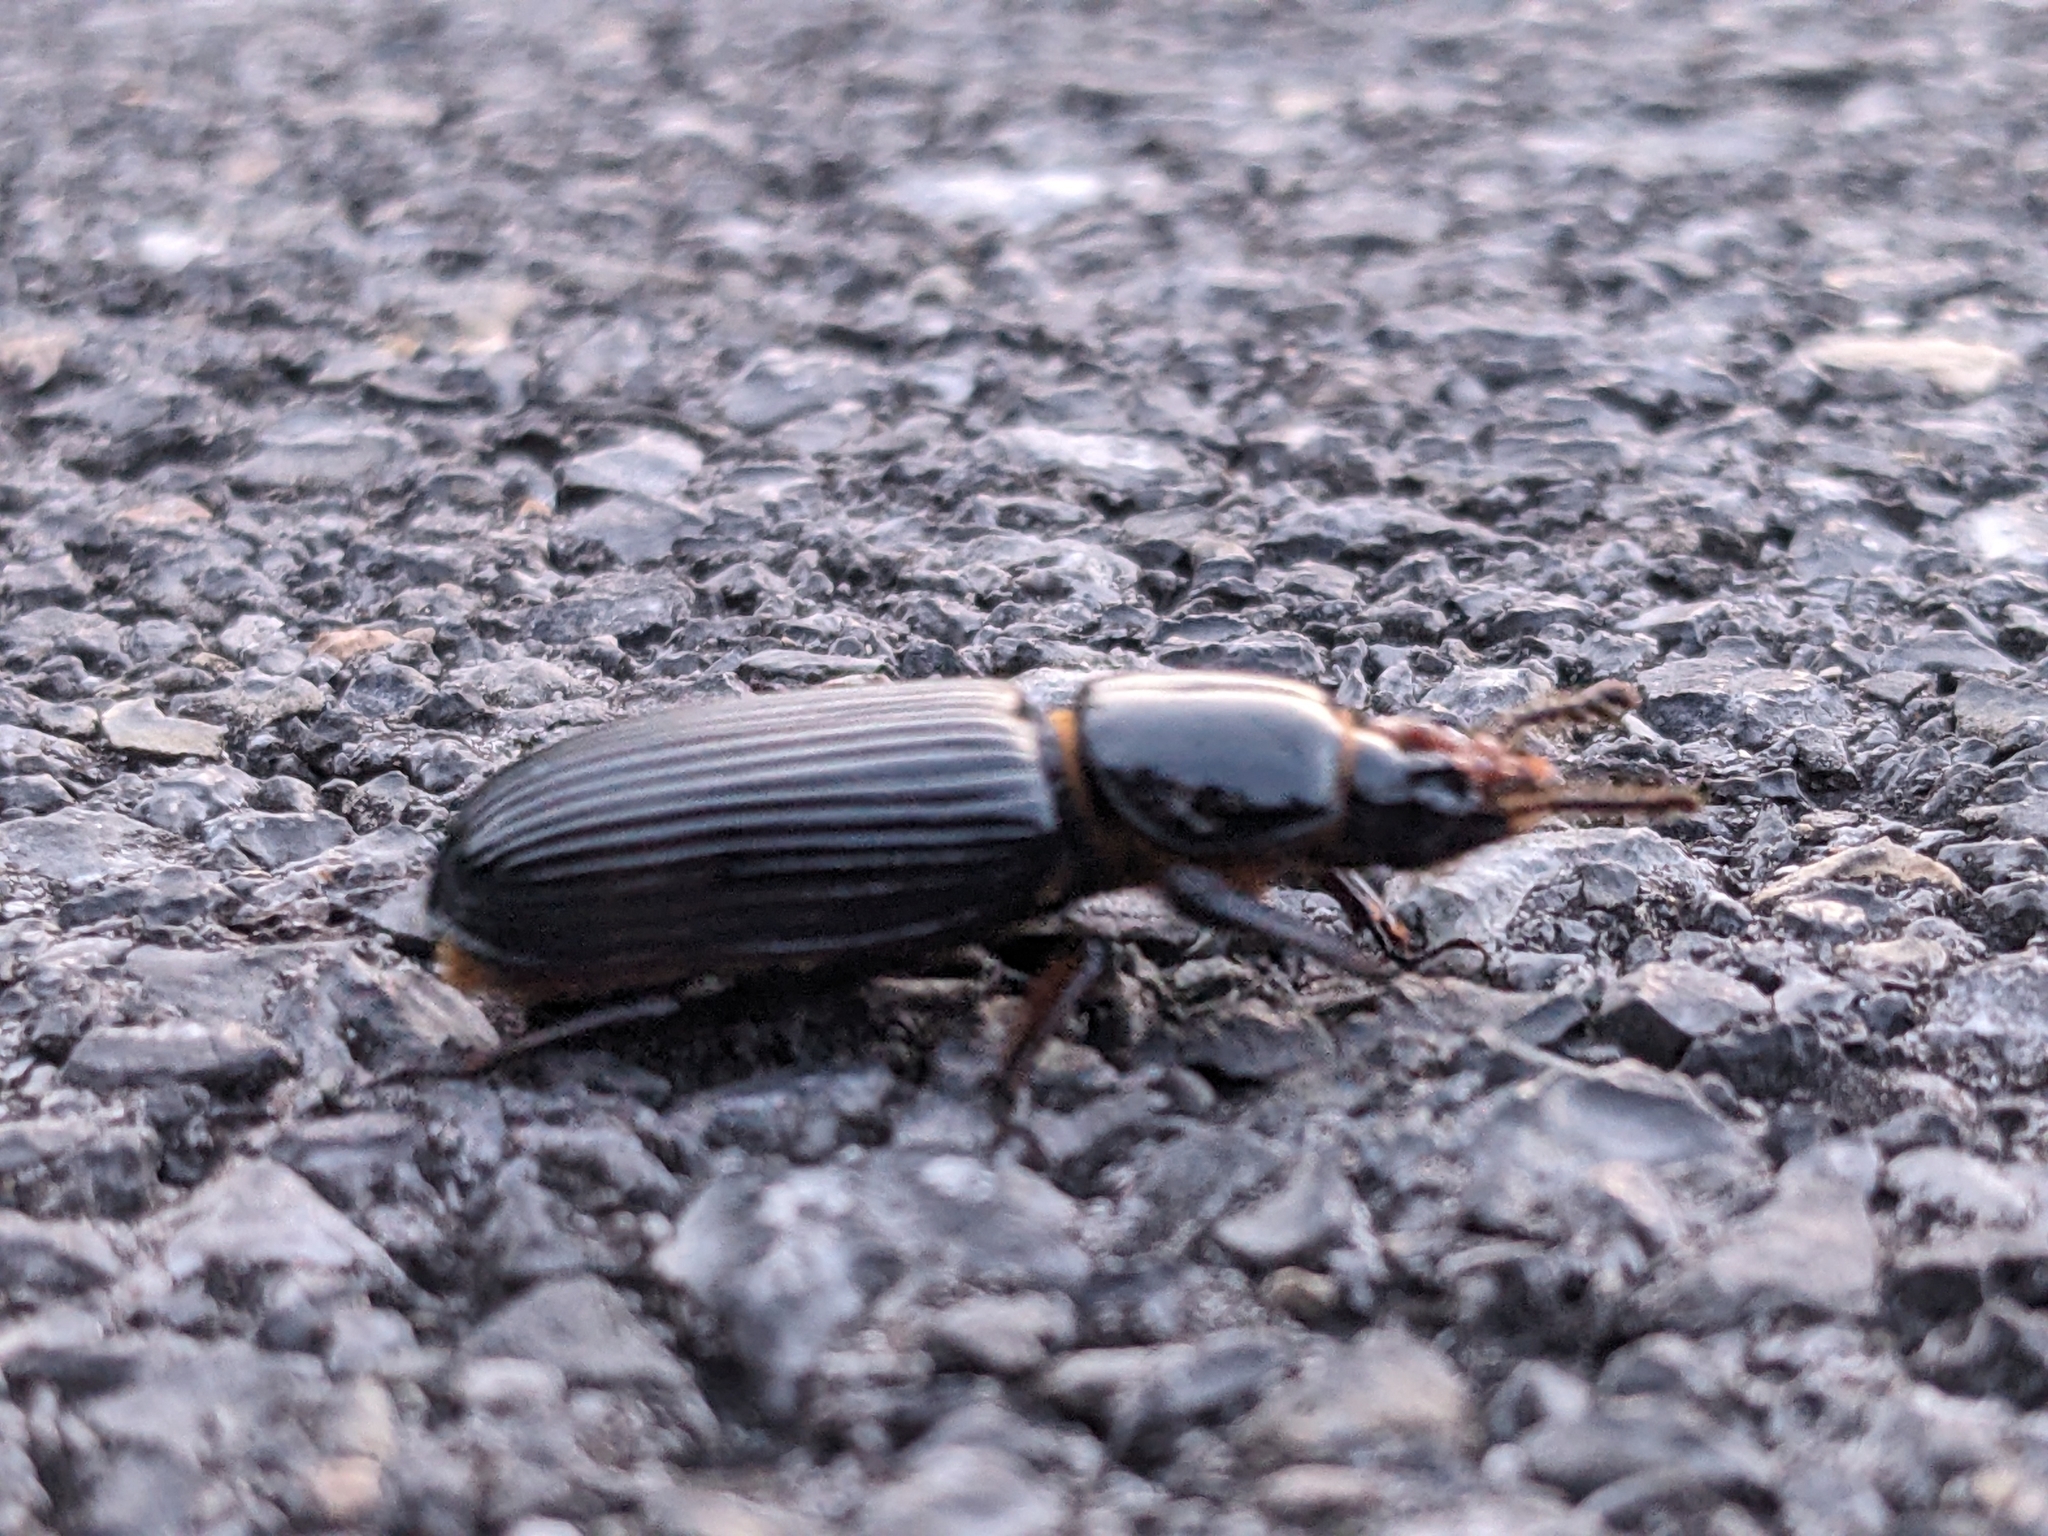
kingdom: Animalia
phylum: Arthropoda
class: Insecta
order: Coleoptera
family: Passalidae
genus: Odontotaenius
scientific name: Odontotaenius disjunctus
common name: Patent leather beetle
